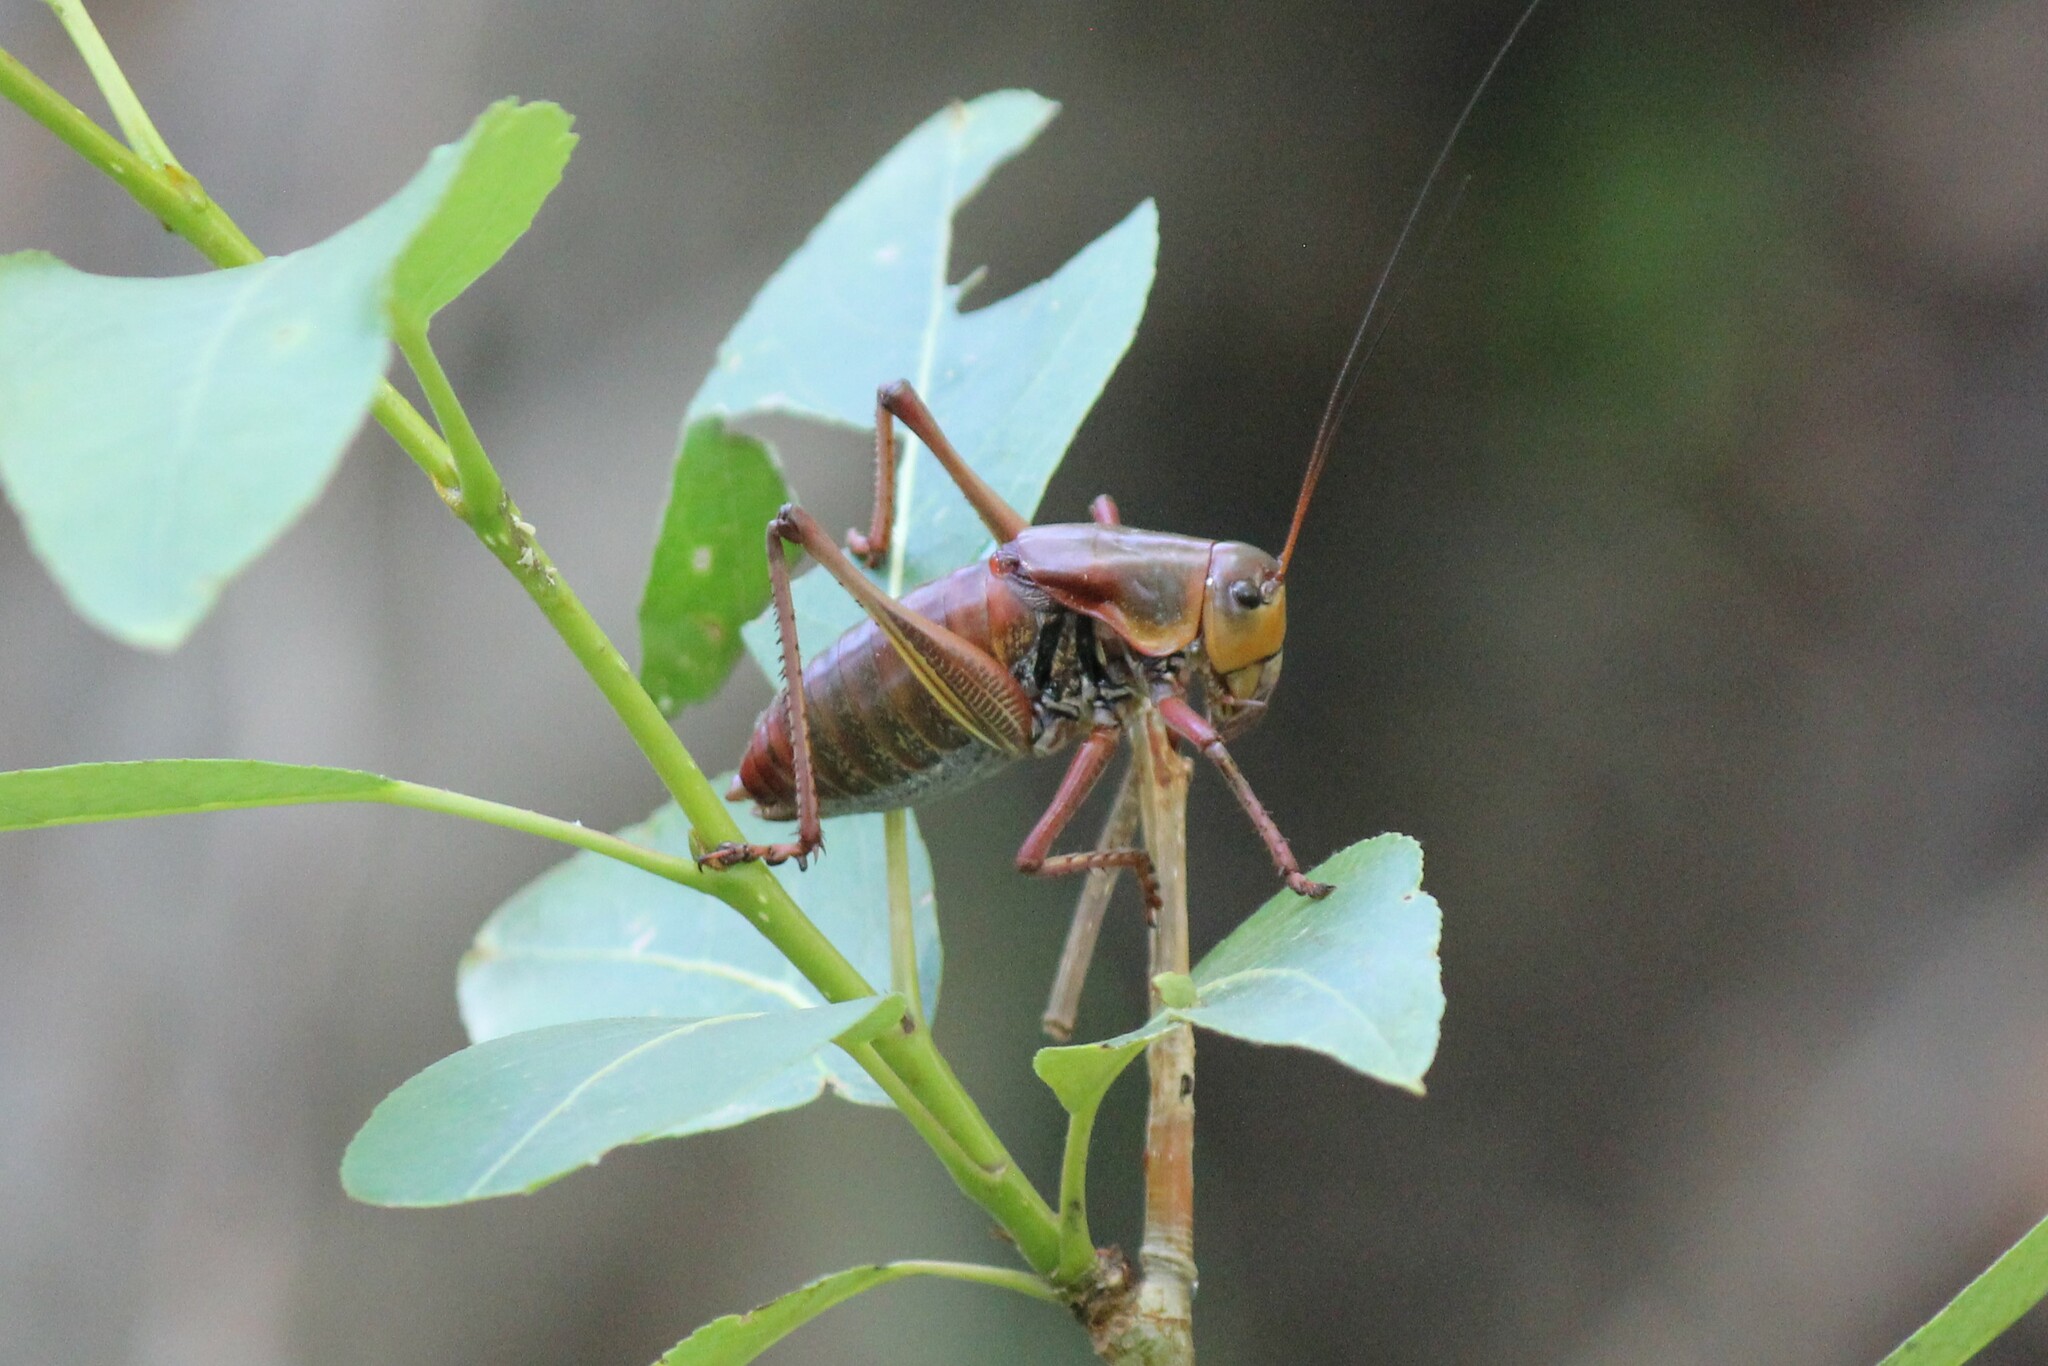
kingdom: Animalia
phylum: Arthropoda
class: Insecta
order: Orthoptera
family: Tettigoniidae
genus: Anabrus
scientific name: Anabrus simplex
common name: Mormon cricket
